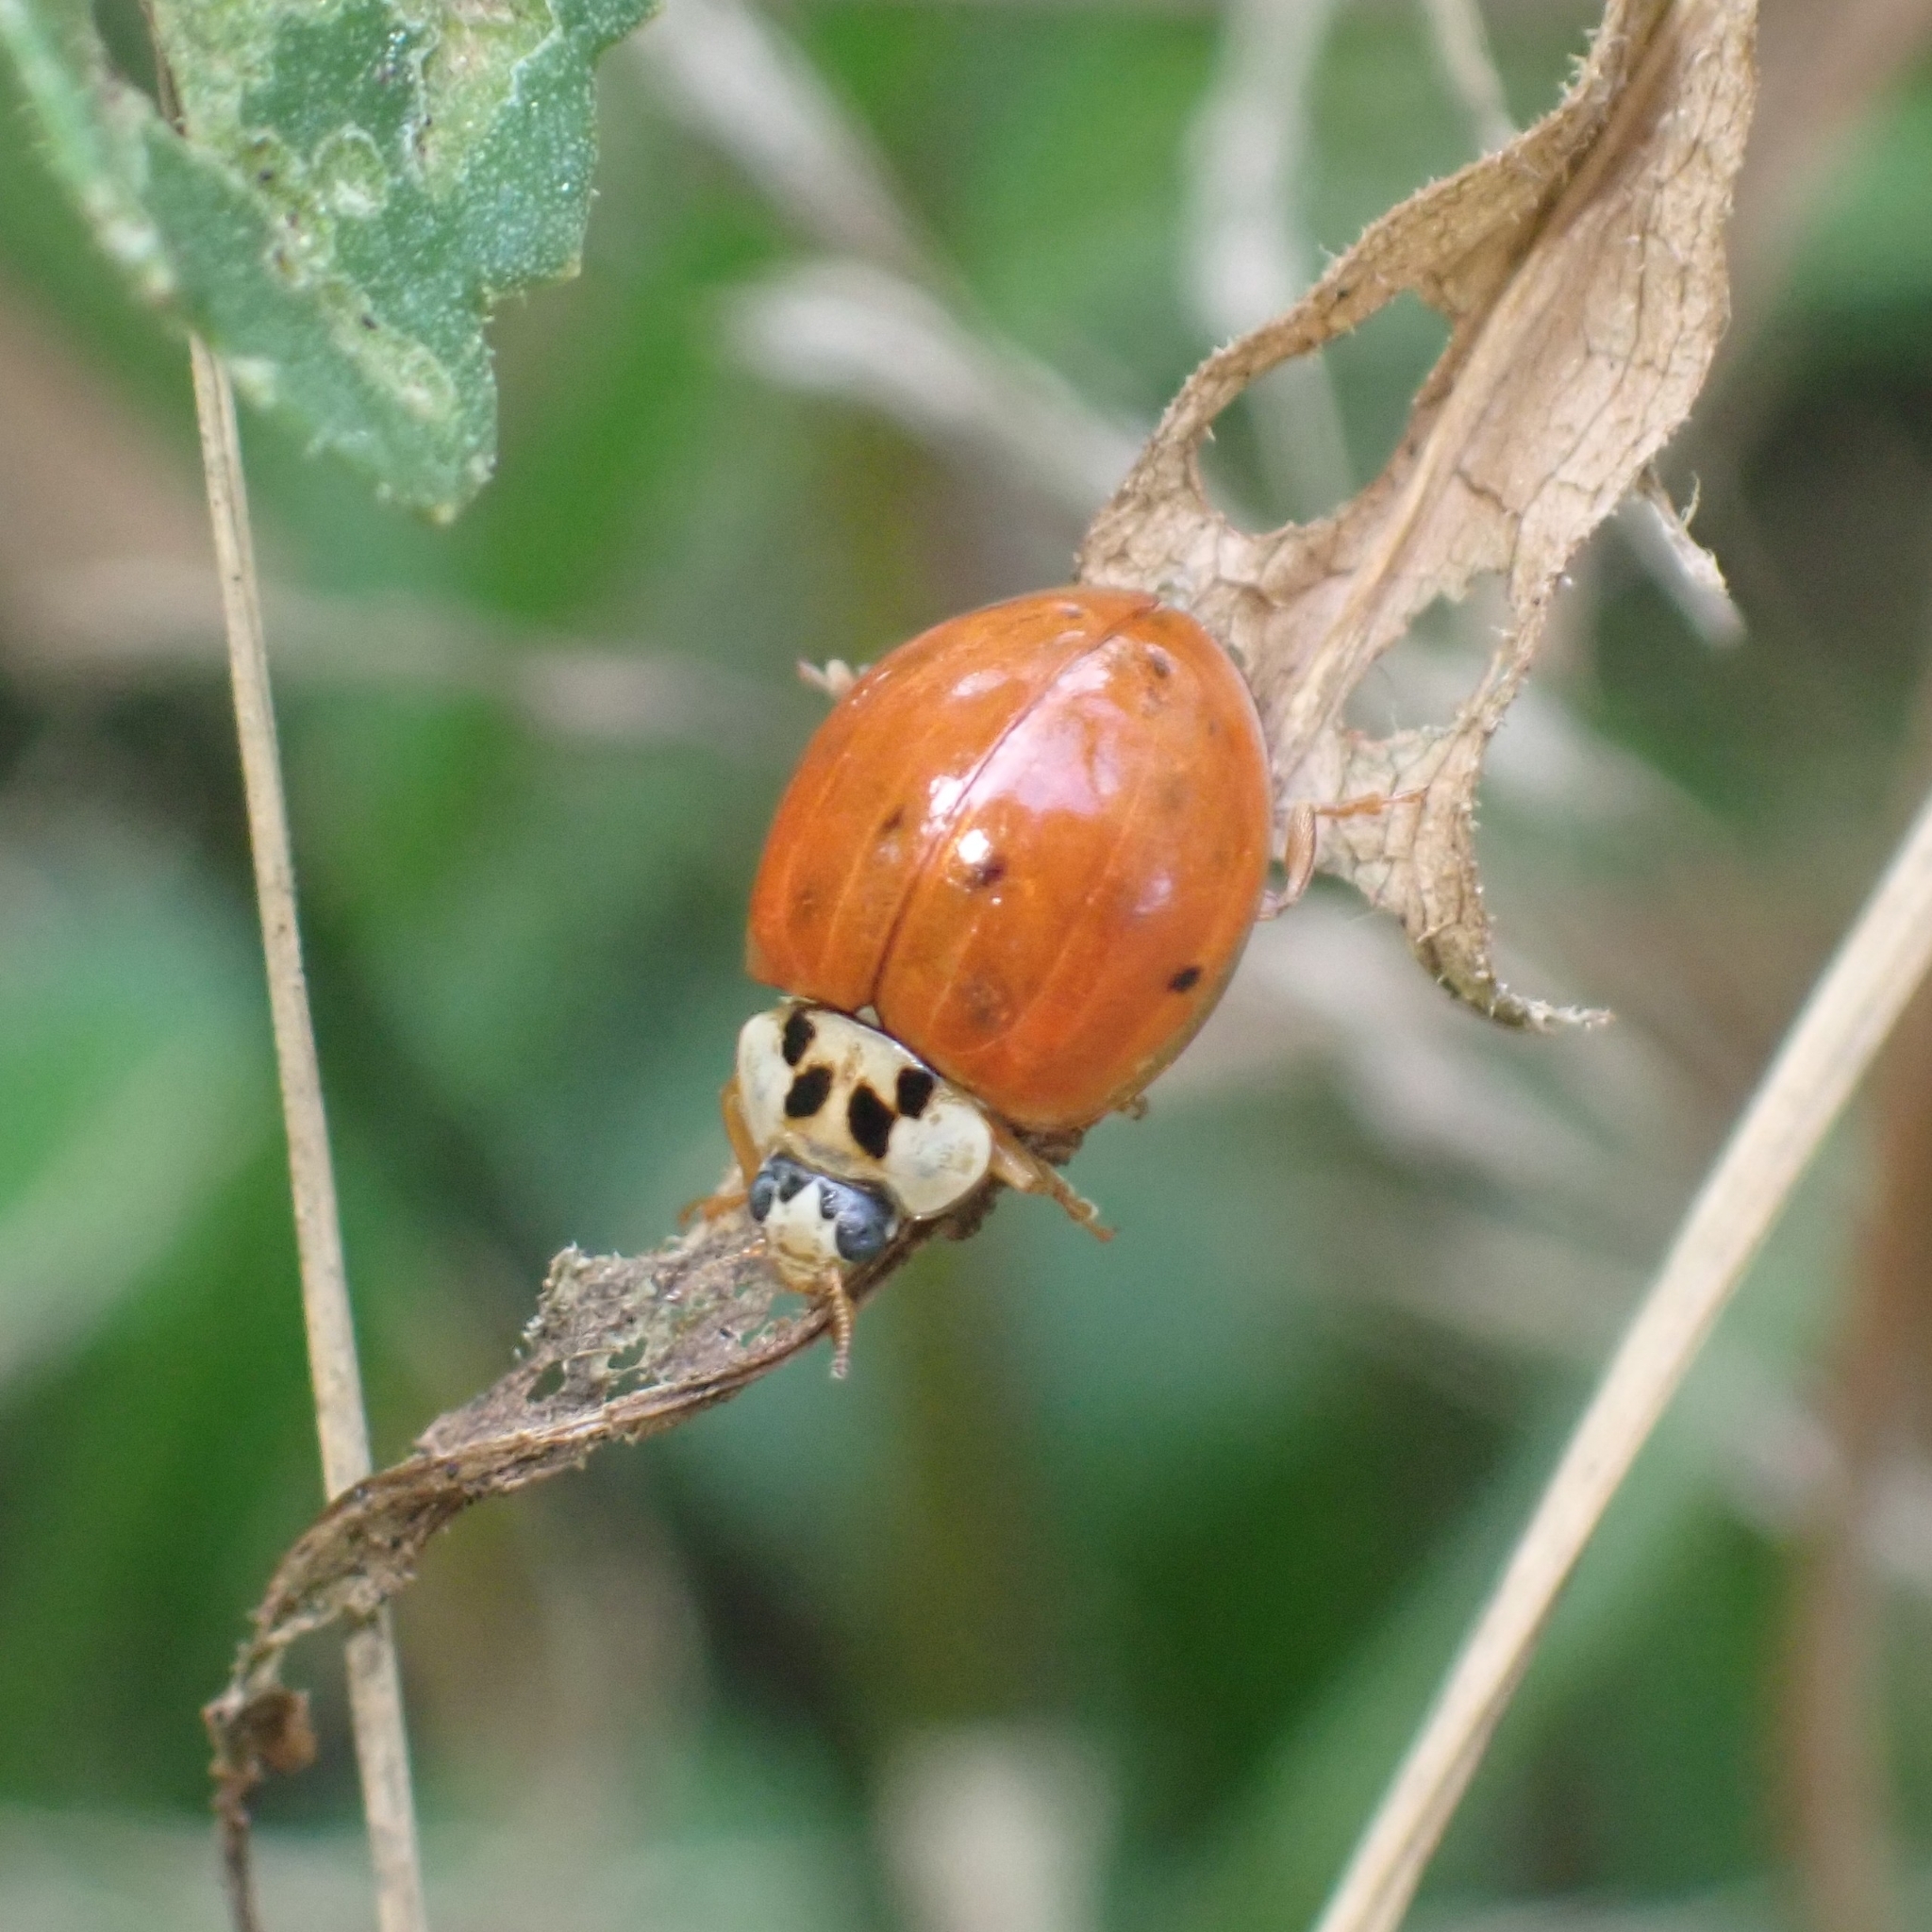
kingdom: Animalia
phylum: Arthropoda
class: Insecta
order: Coleoptera
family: Coccinellidae
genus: Harmonia
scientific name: Harmonia axyridis
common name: Harlequin ladybird
